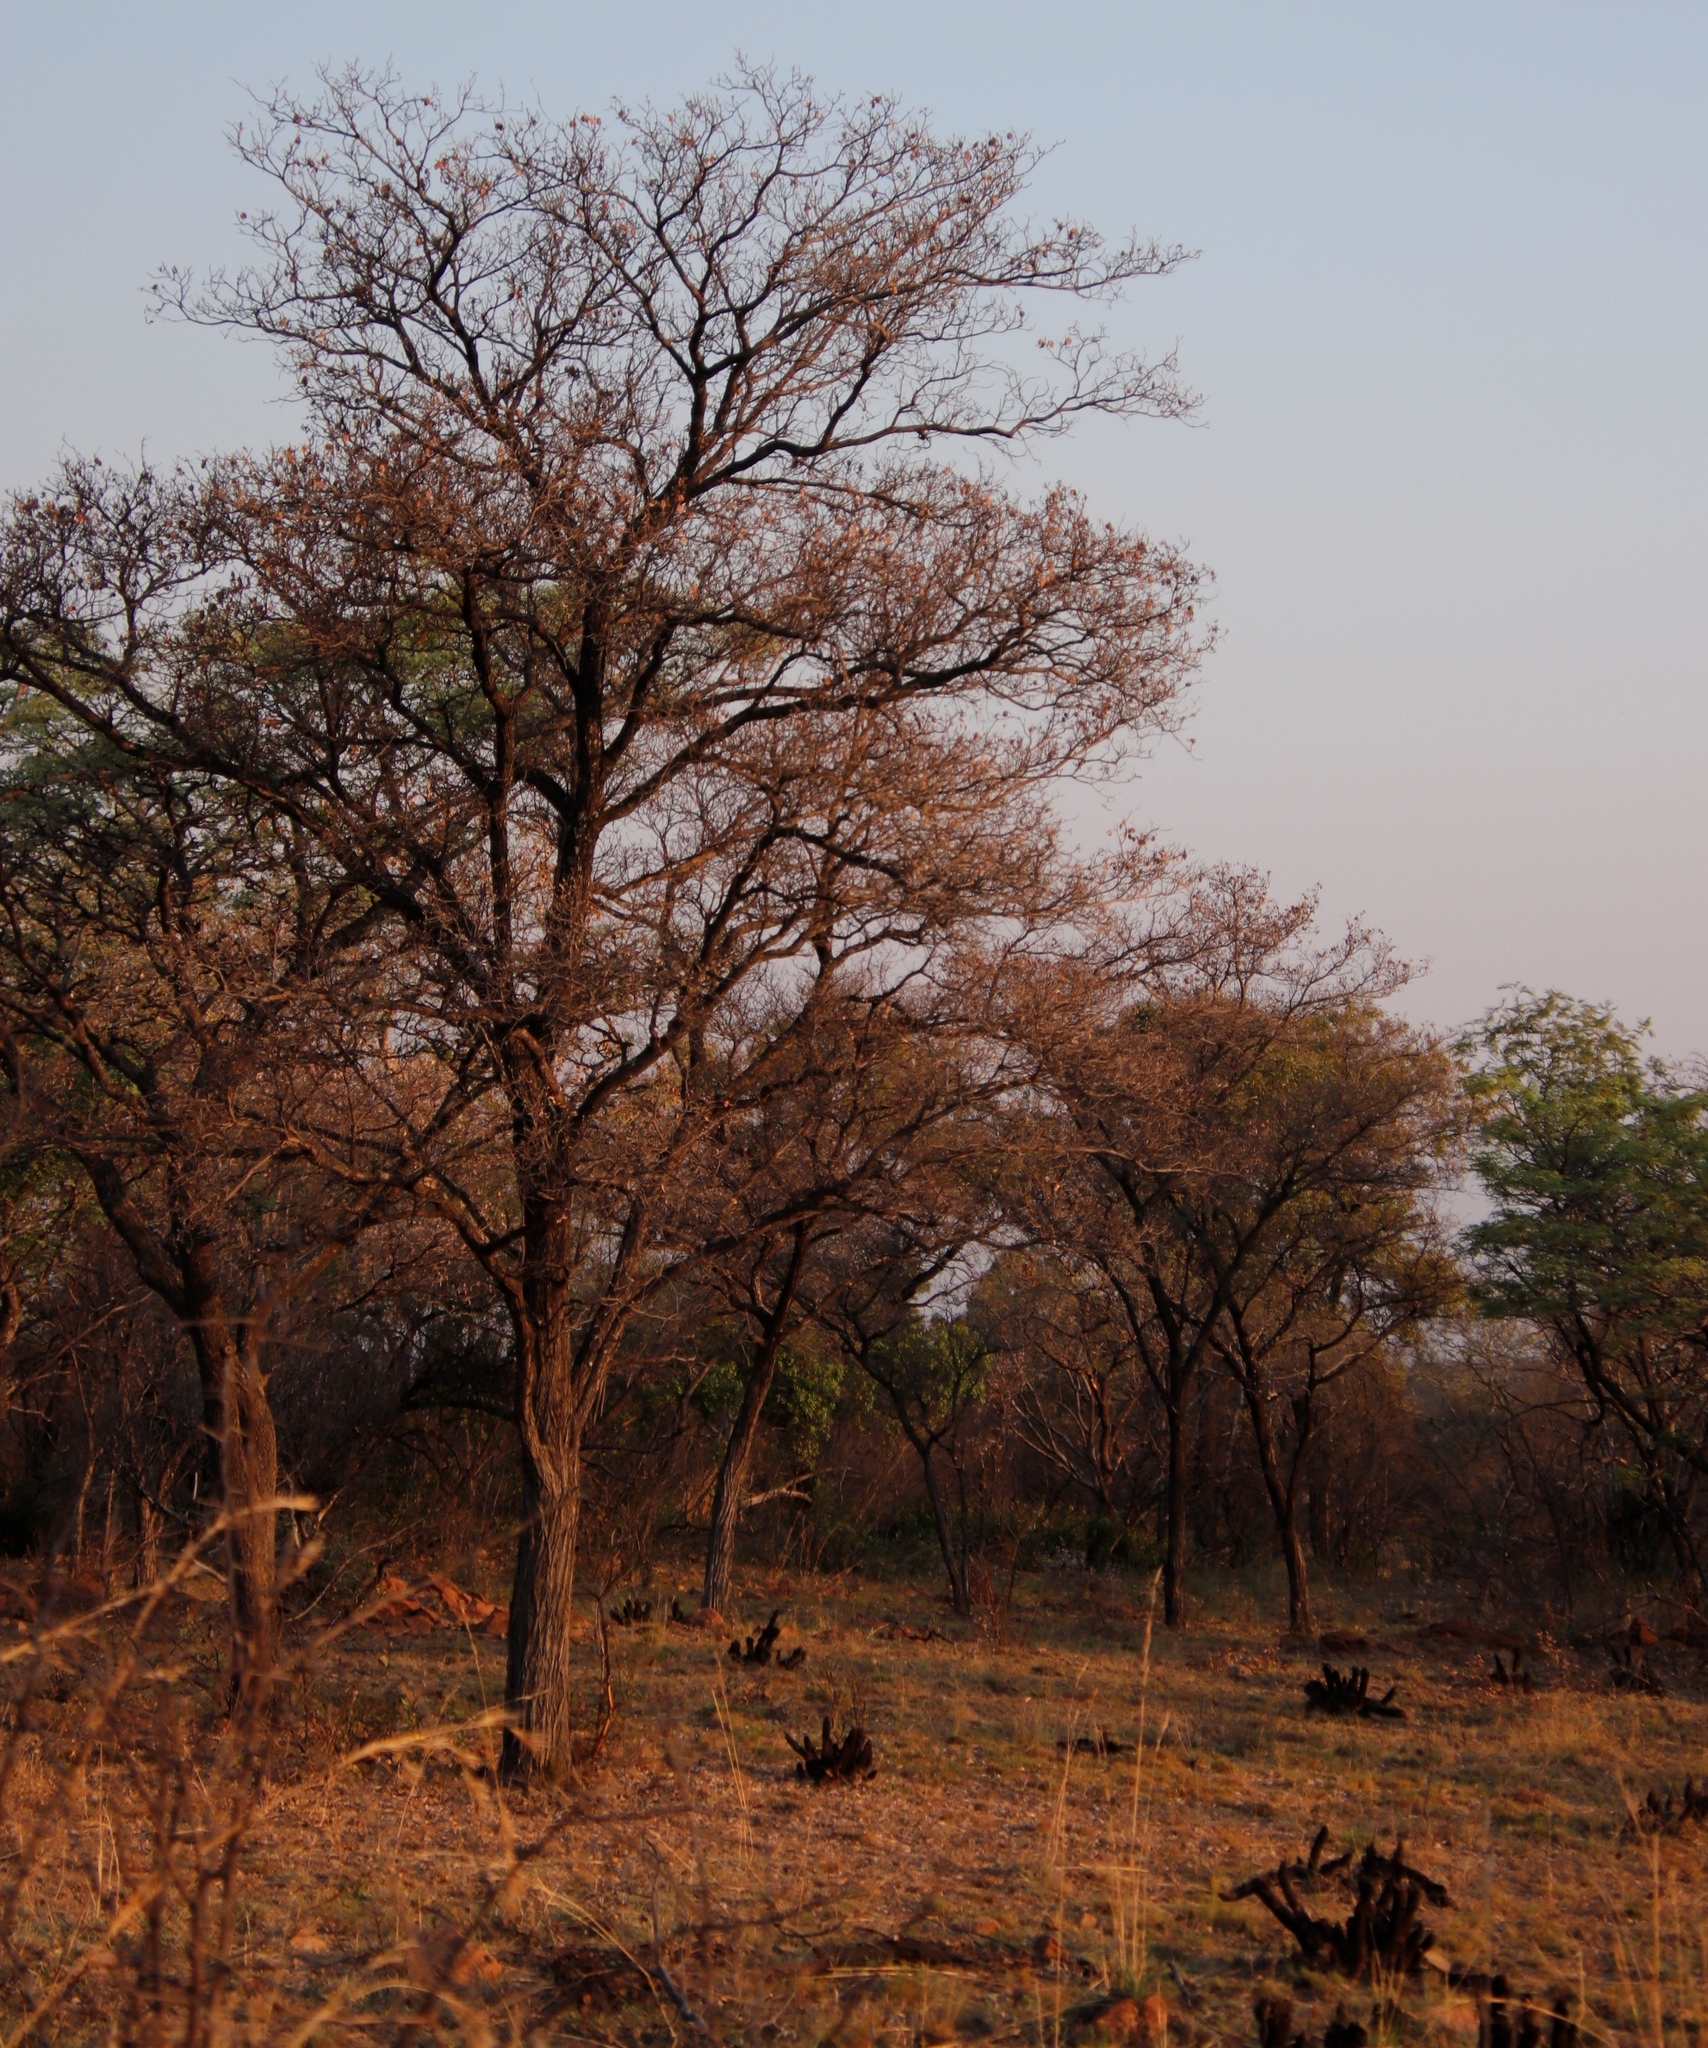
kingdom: Plantae
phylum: Tracheophyta
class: Magnoliopsida
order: Myrtales
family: Combretaceae
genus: Terminalia
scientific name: Terminalia sericea
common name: Clusterleaf
